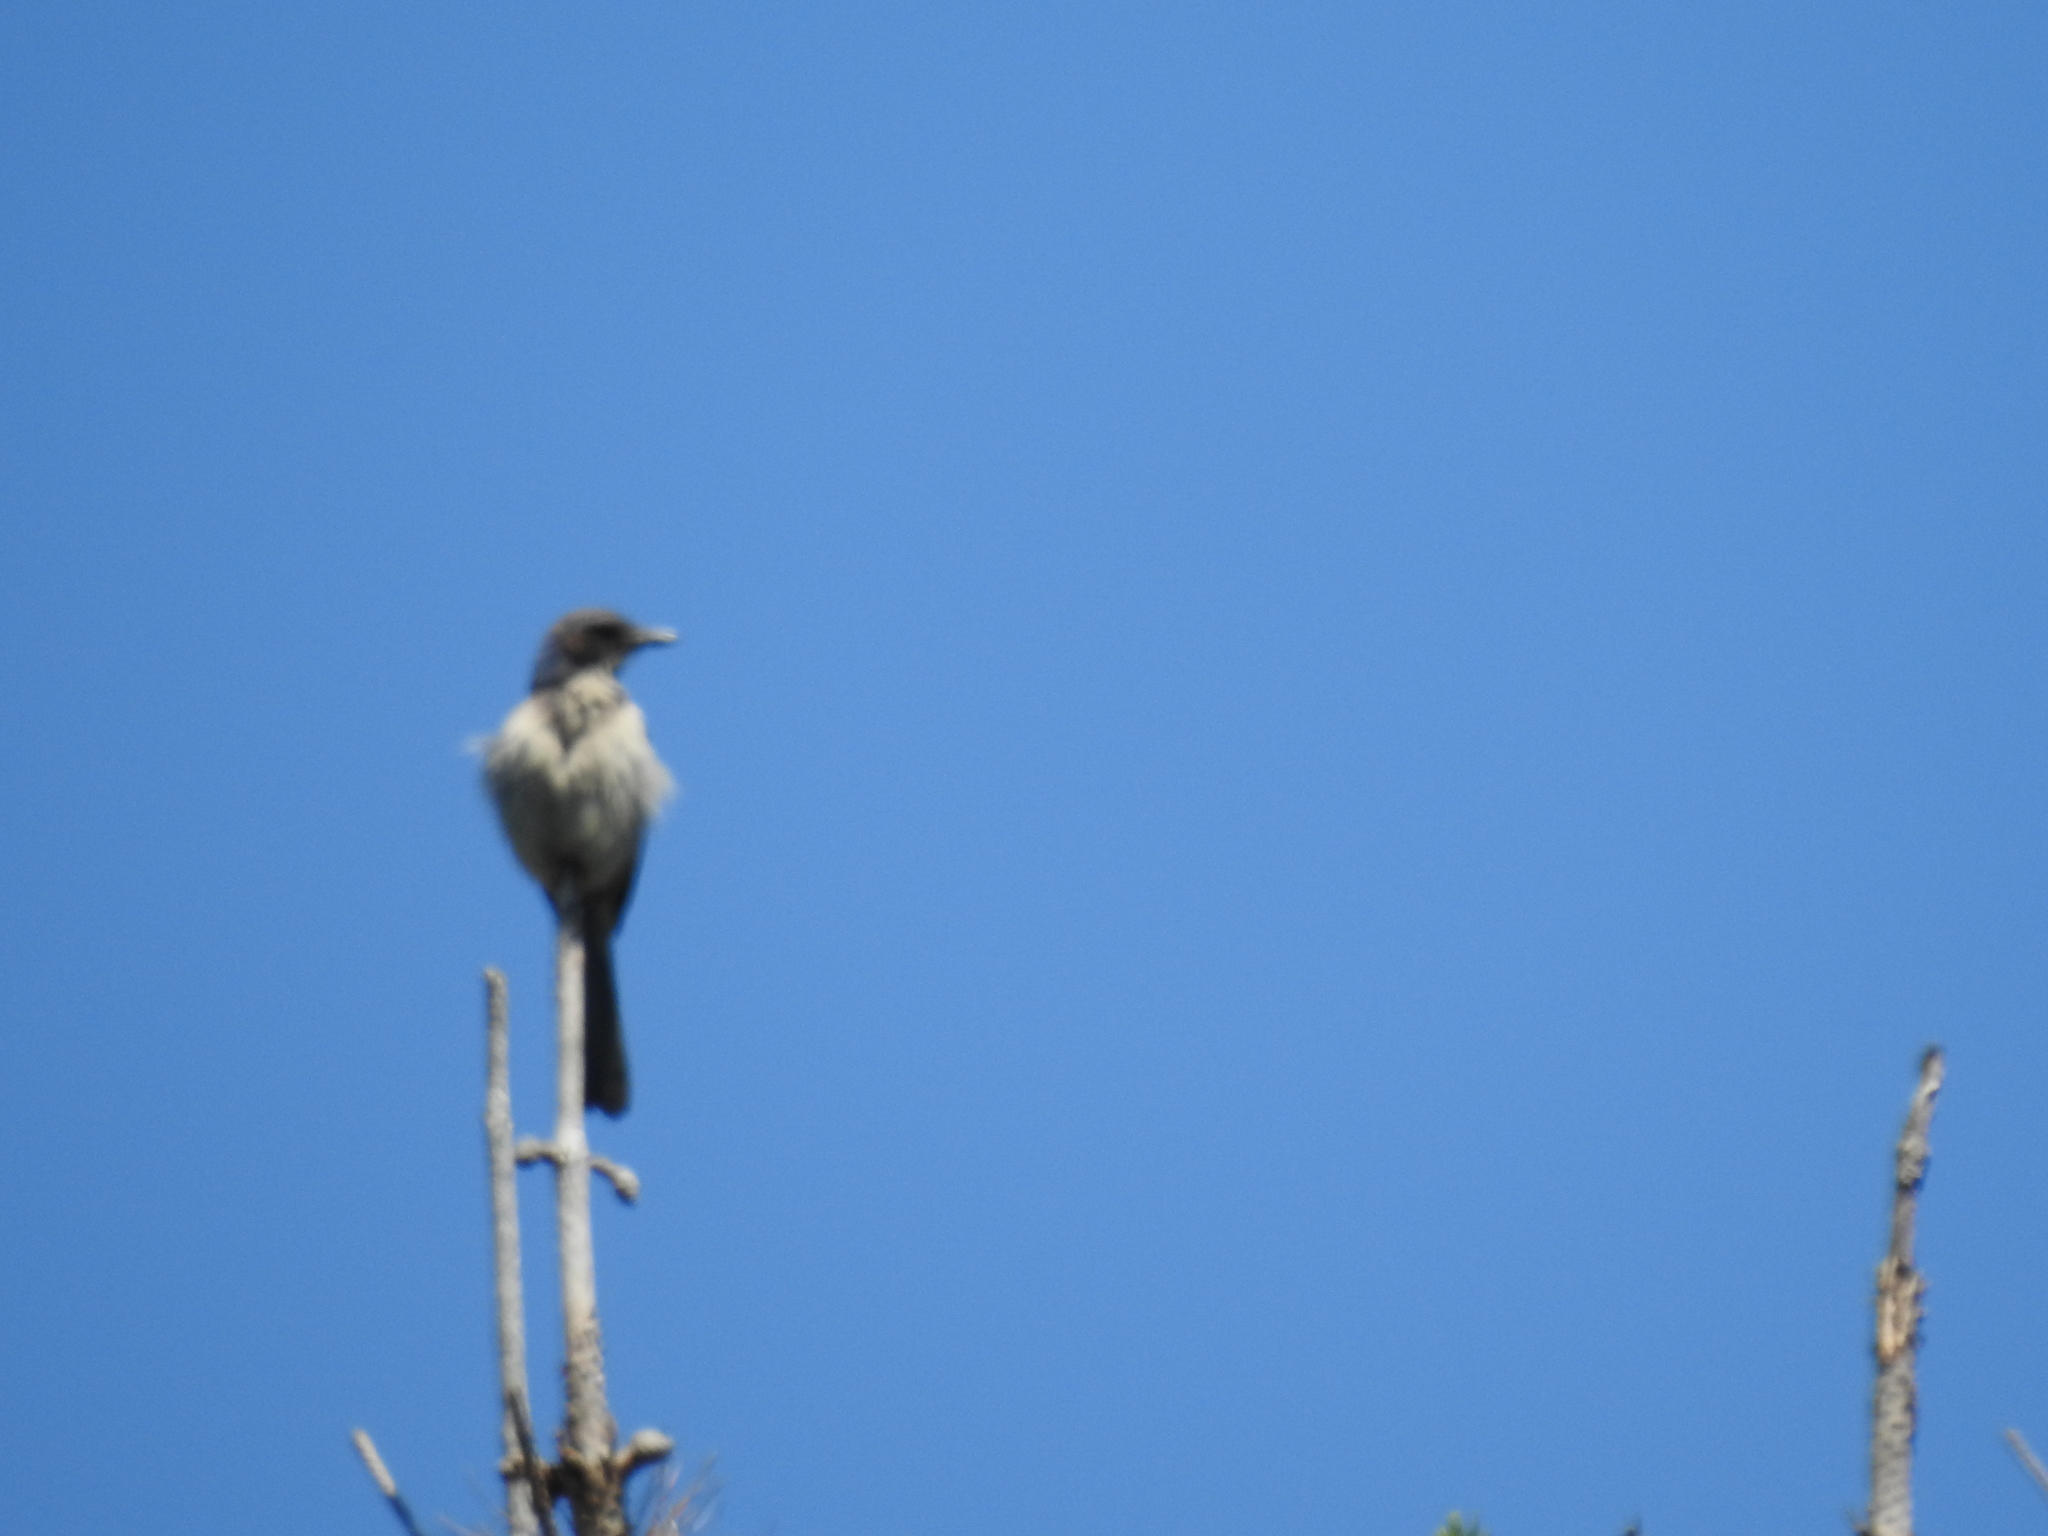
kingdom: Animalia
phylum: Chordata
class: Aves
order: Passeriformes
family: Corvidae
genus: Aphelocoma
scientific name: Aphelocoma californica
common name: California scrub-jay
